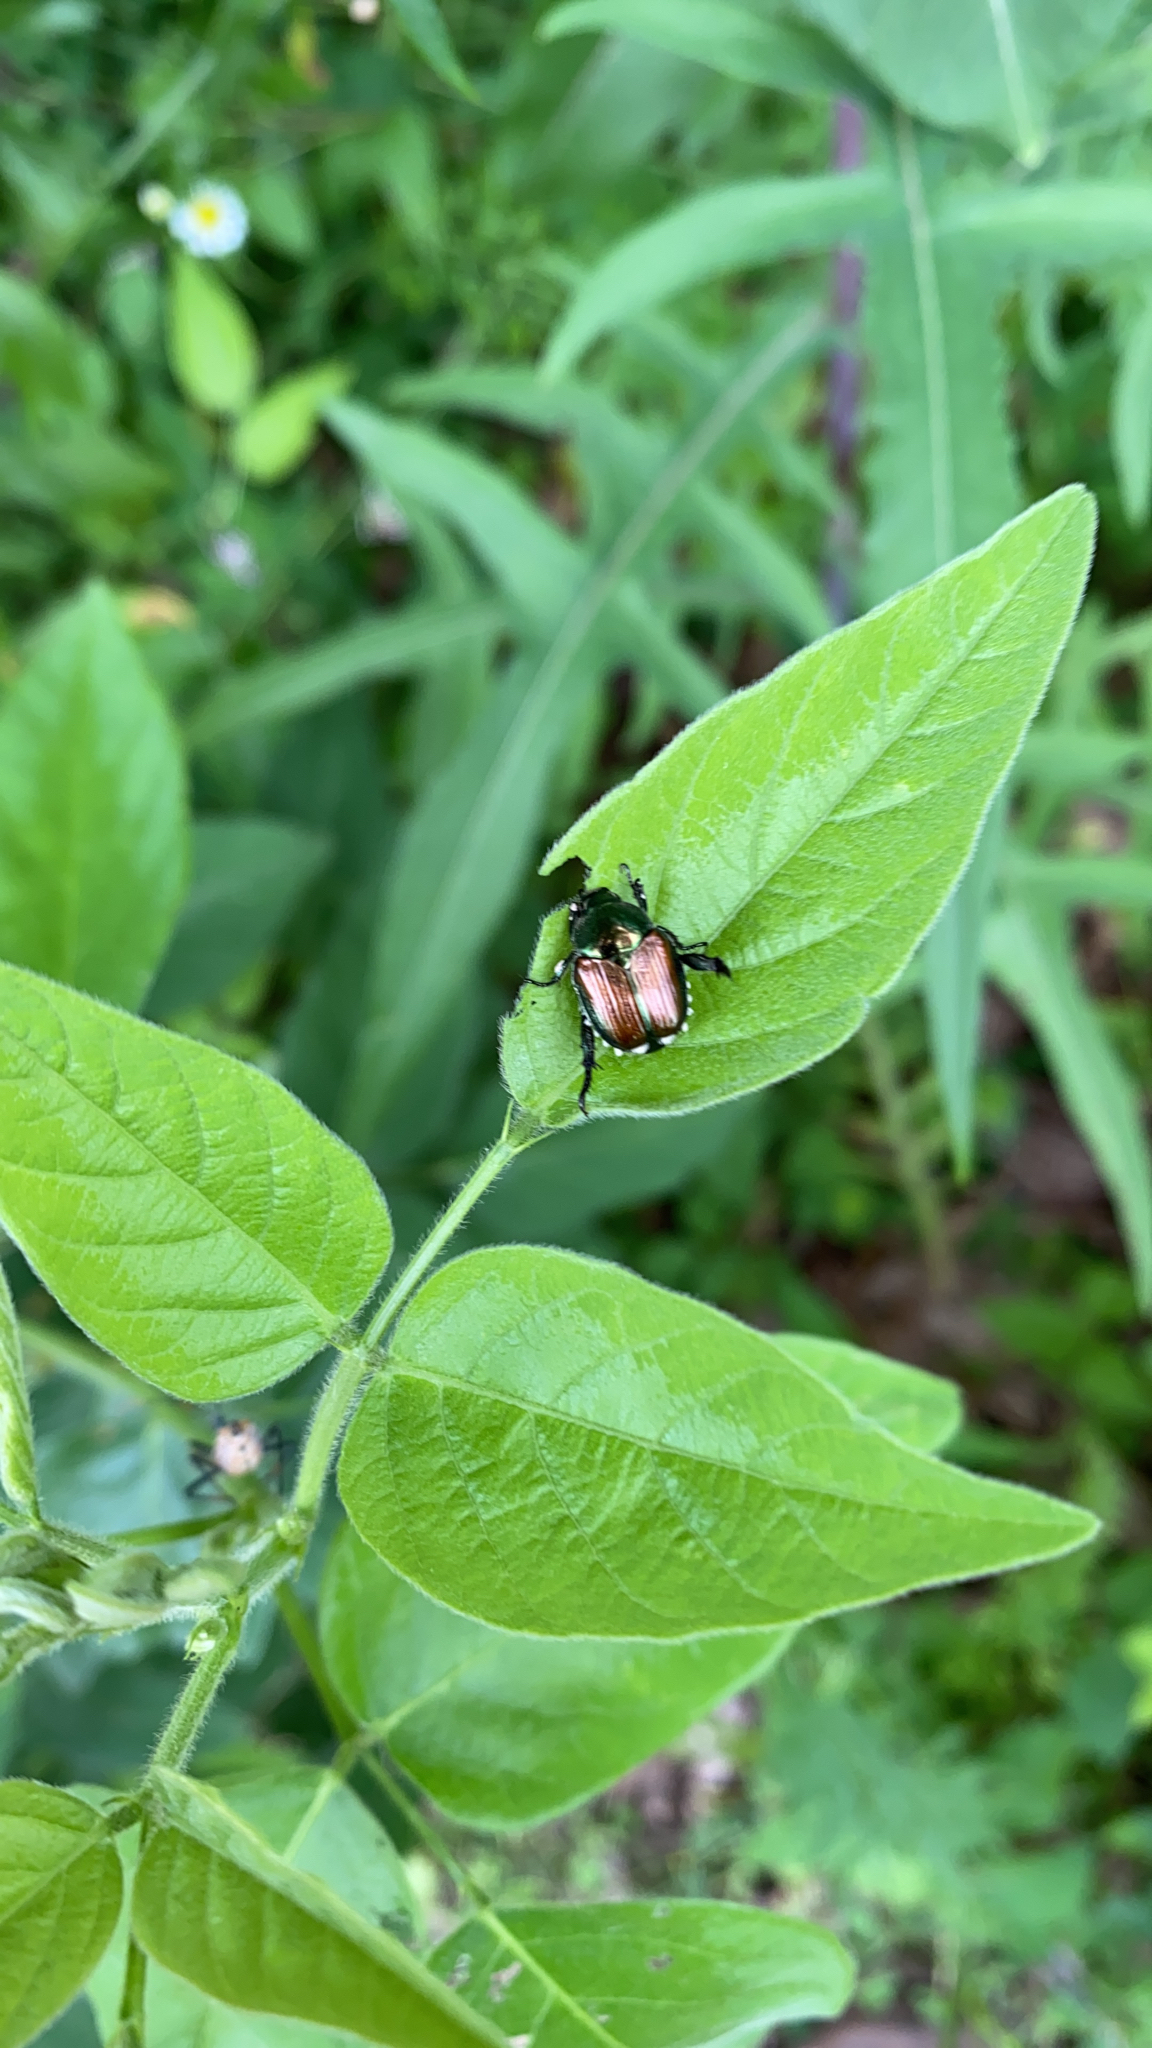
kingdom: Animalia
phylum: Arthropoda
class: Insecta
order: Coleoptera
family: Scarabaeidae
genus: Popillia
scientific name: Popillia japonica
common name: Japanese beetle
